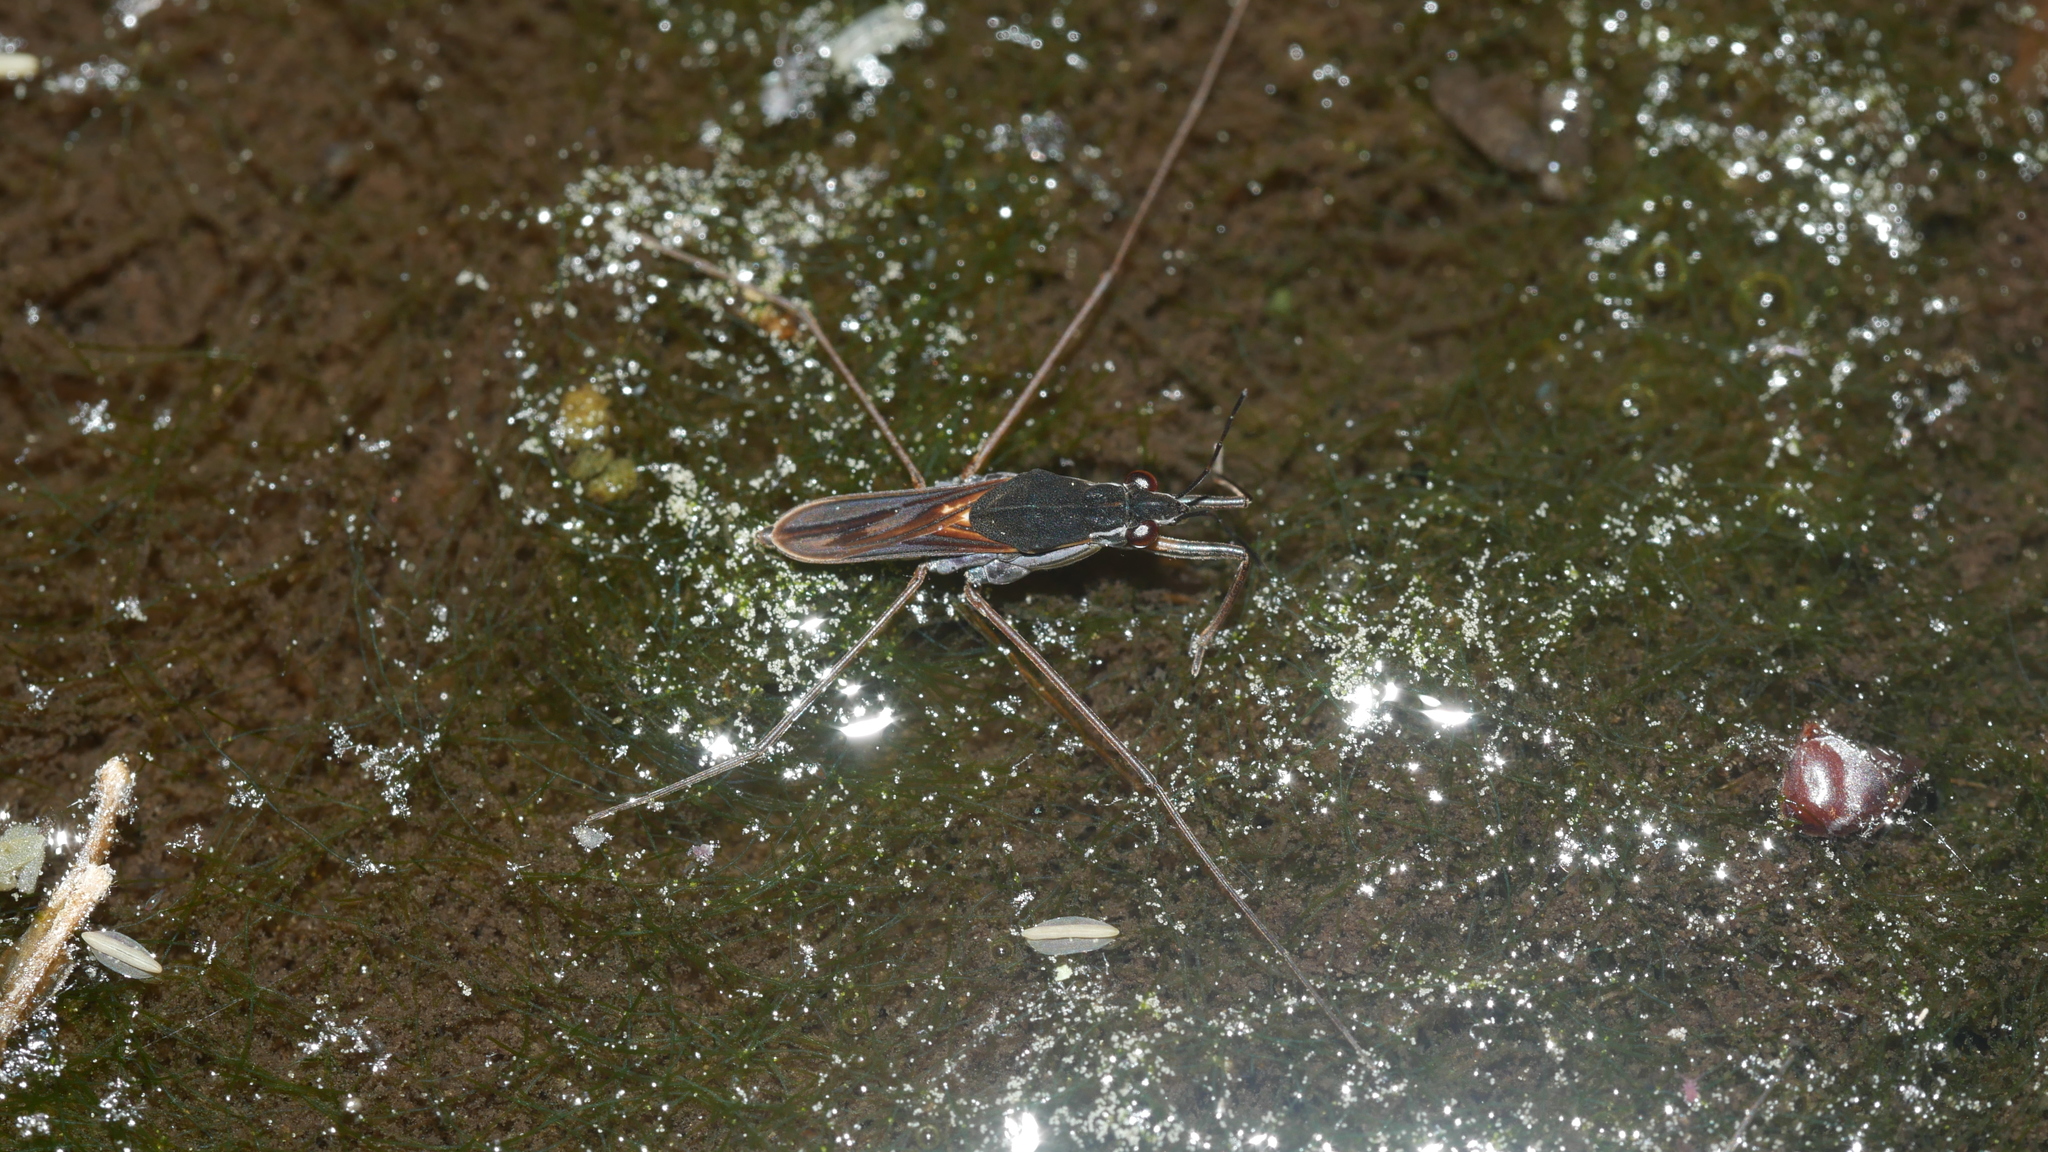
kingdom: Animalia
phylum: Arthropoda
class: Insecta
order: Hemiptera
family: Gerridae
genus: Gerris
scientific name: Gerris argenticollis
